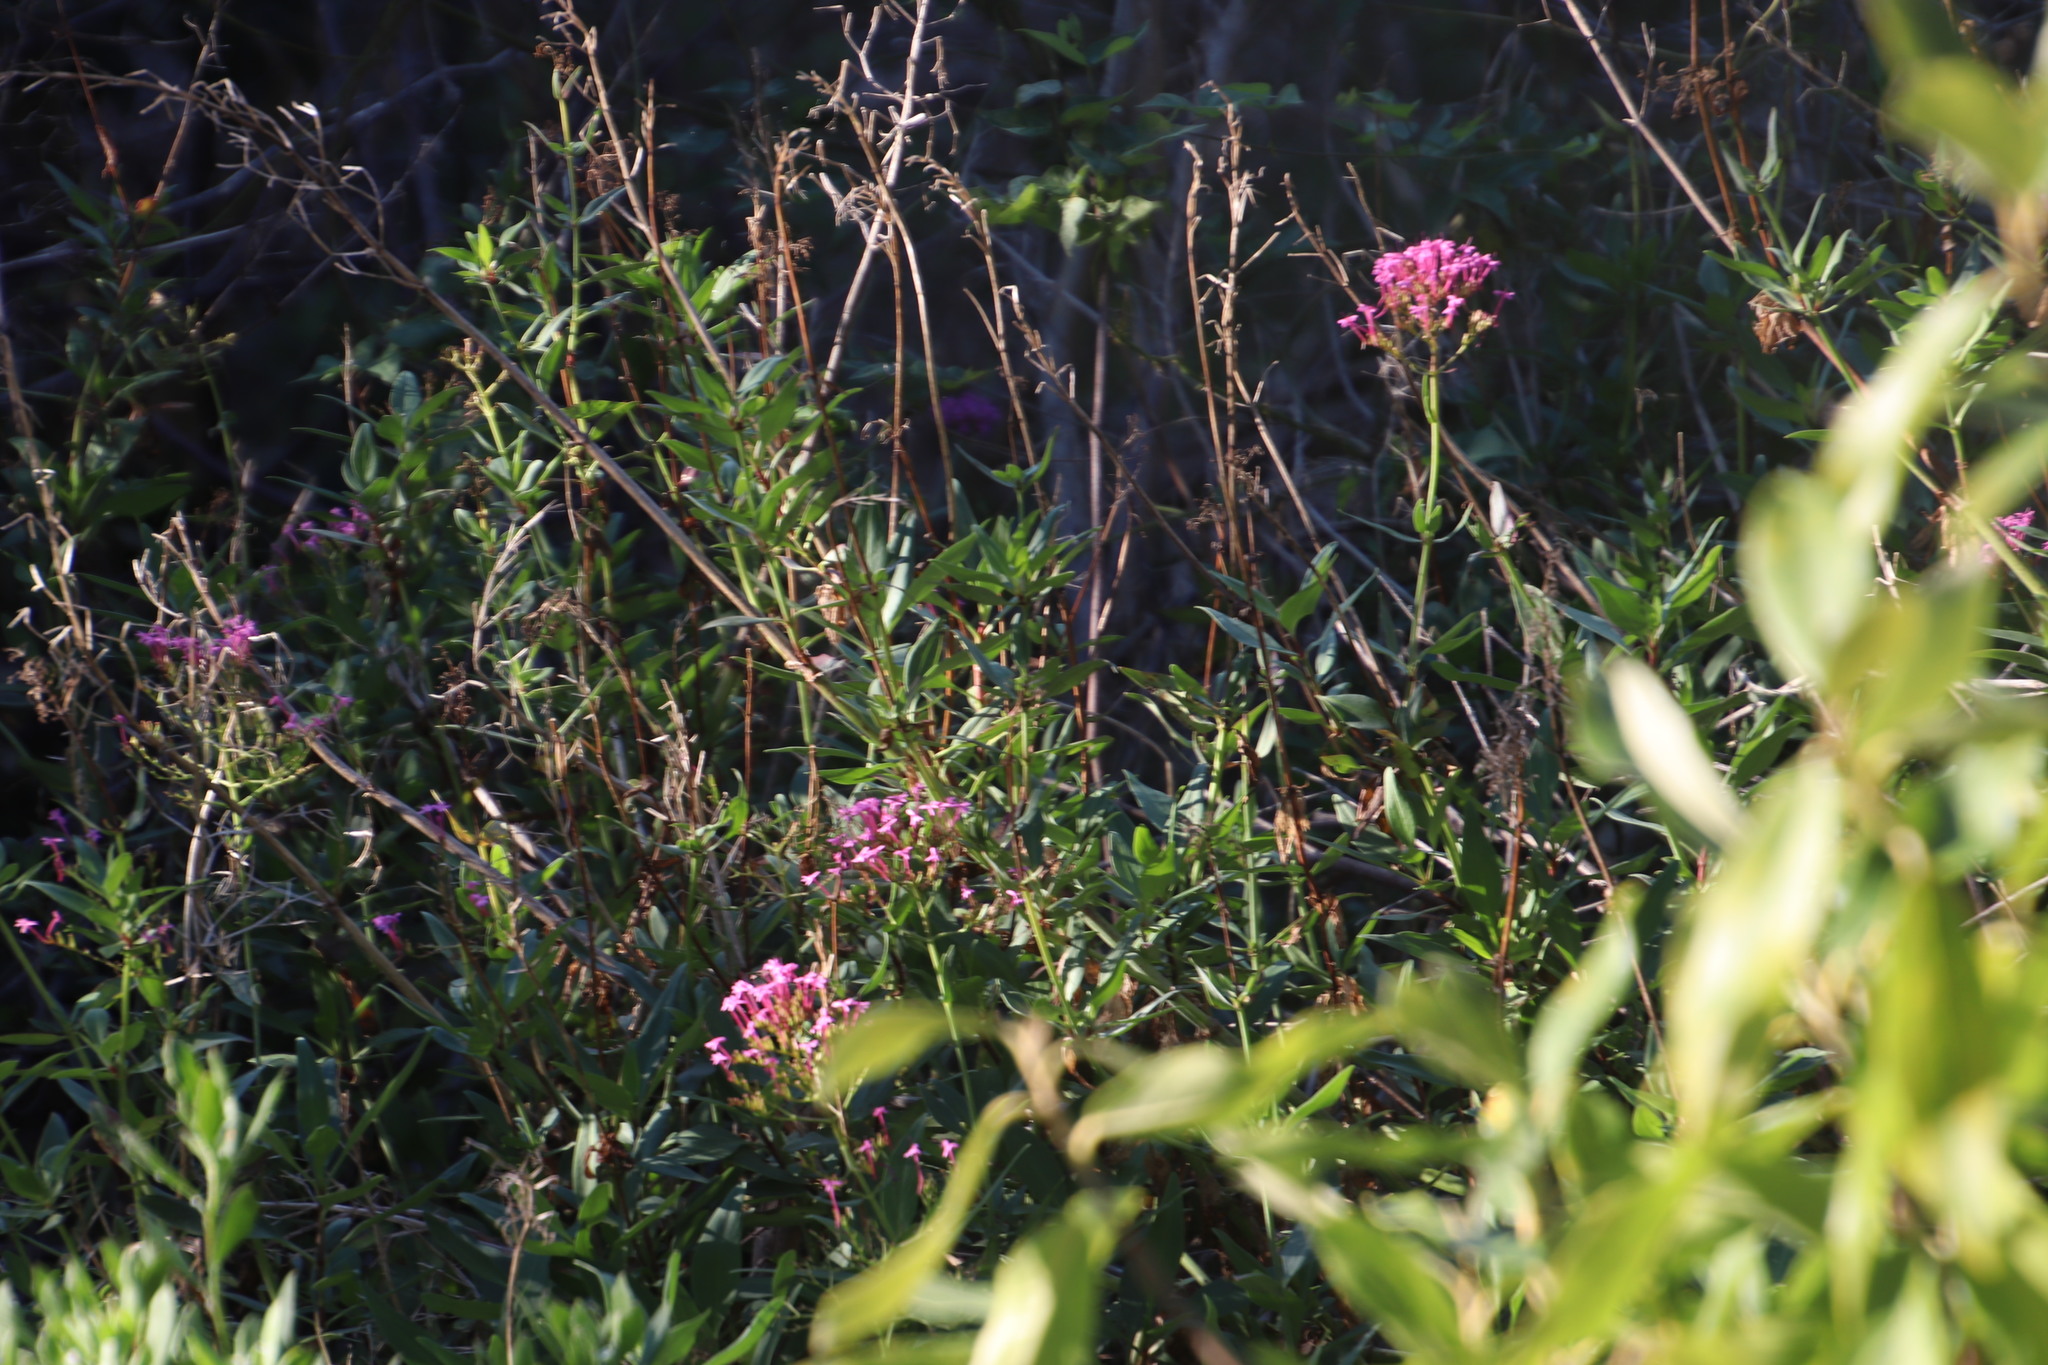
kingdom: Plantae
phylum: Tracheophyta
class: Magnoliopsida
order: Dipsacales
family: Caprifoliaceae
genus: Centranthus
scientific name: Centranthus ruber
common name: Red valerian
